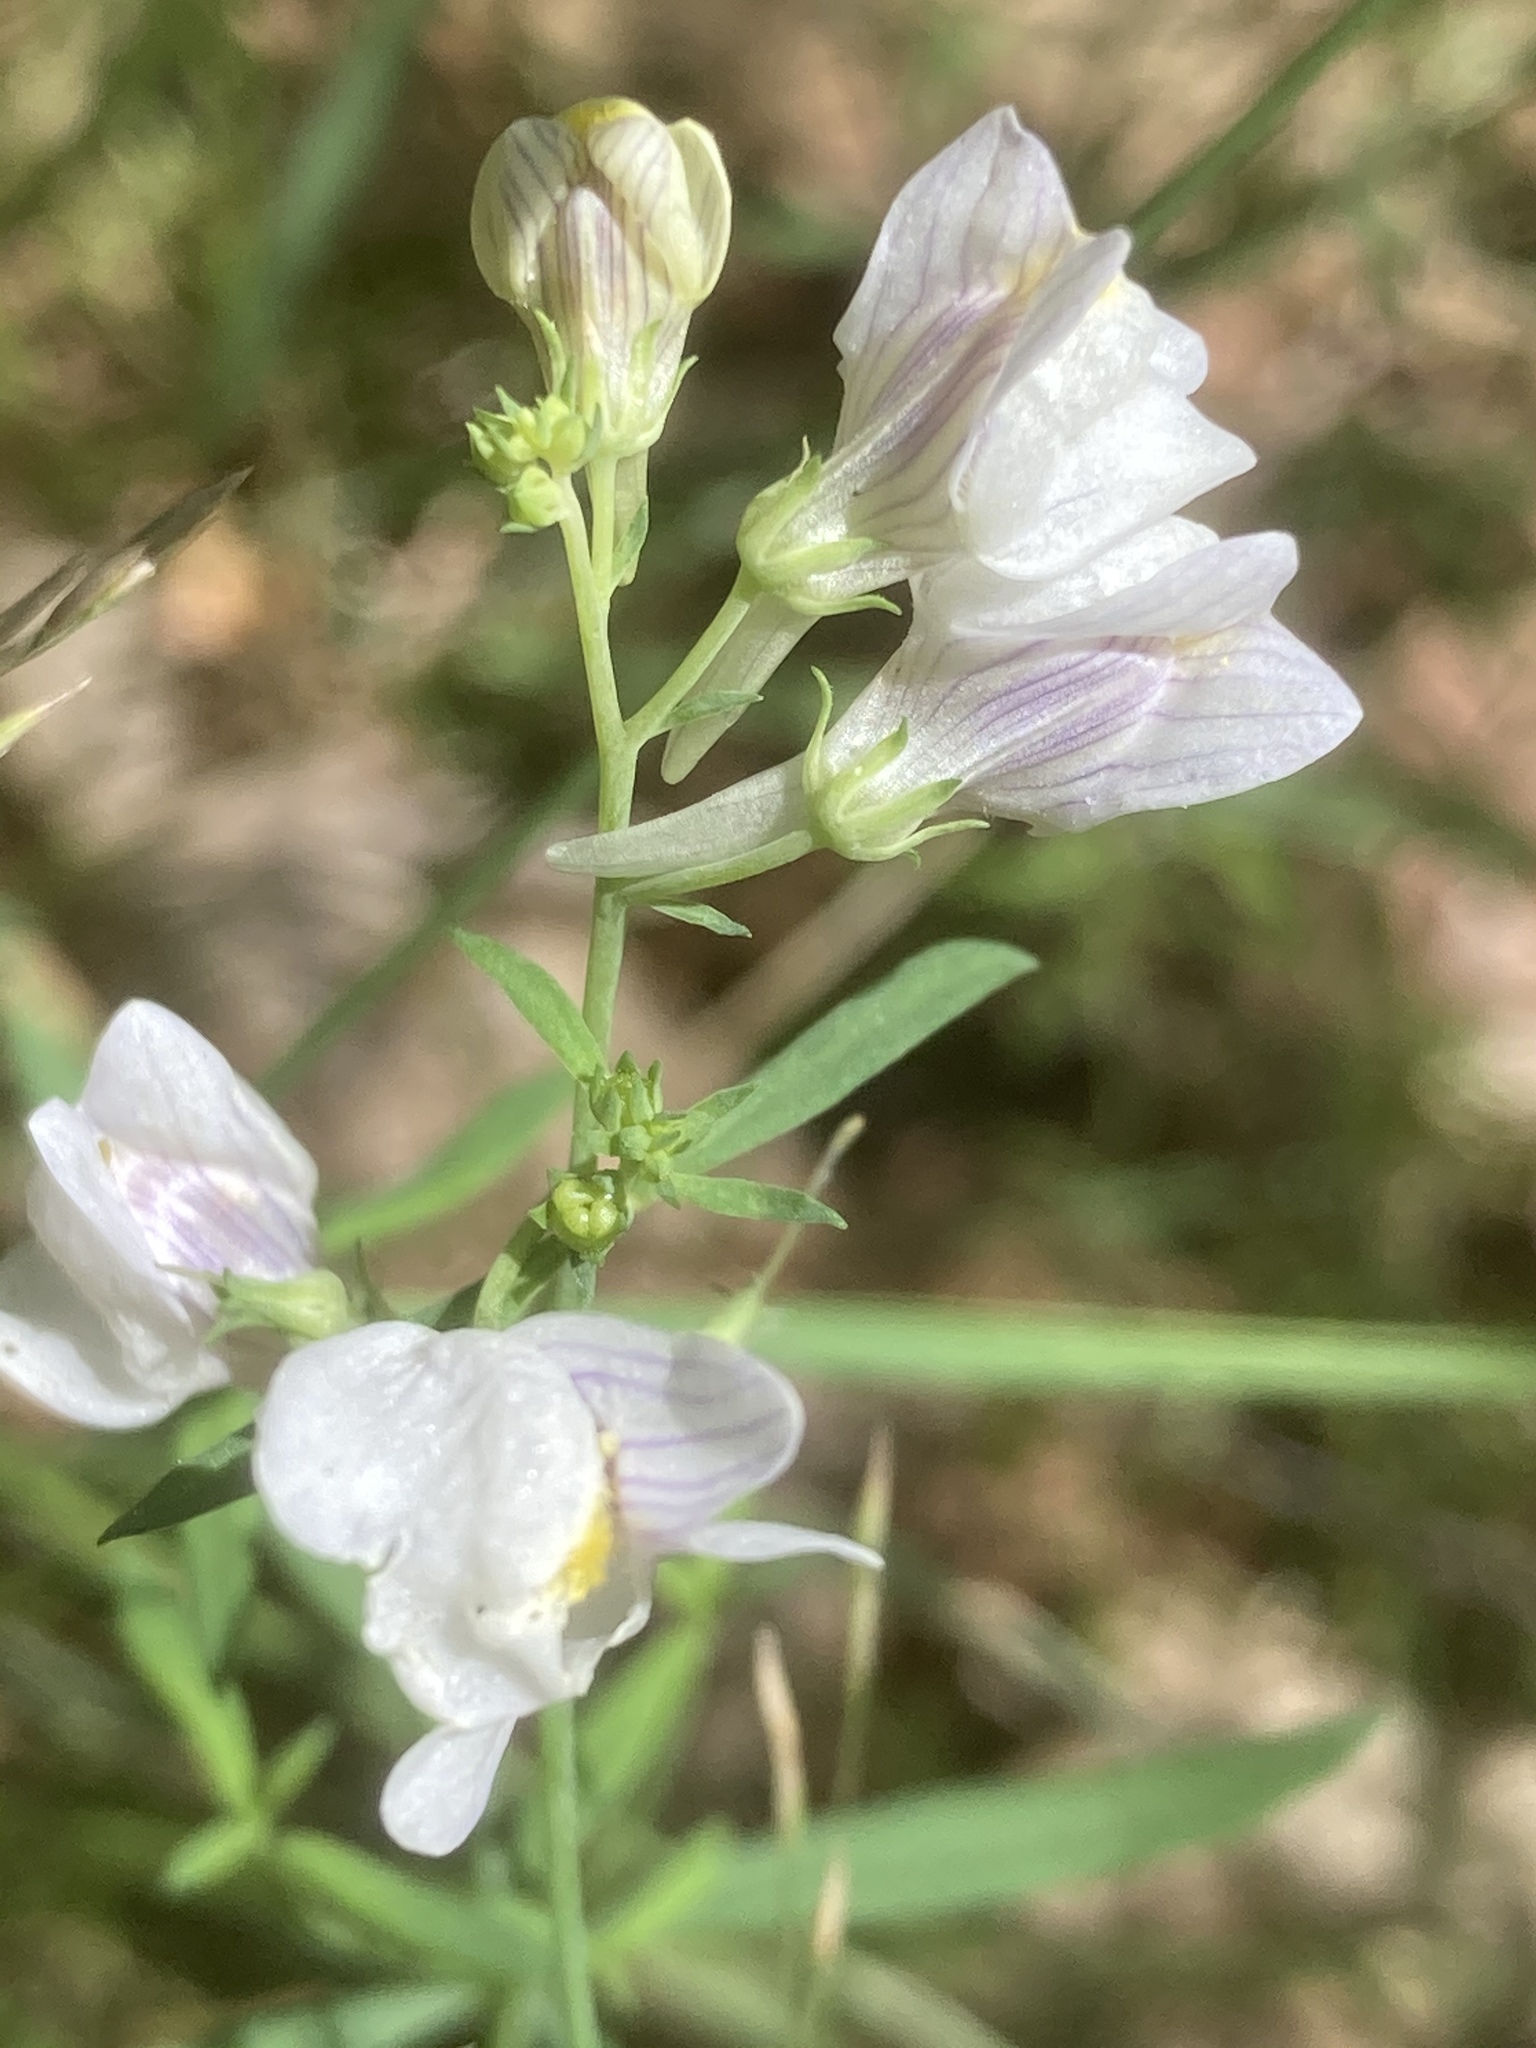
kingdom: Plantae
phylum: Tracheophyta
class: Magnoliopsida
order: Lamiales
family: Plantaginaceae
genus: Linaria
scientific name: Linaria repens
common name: Pale toadflax
